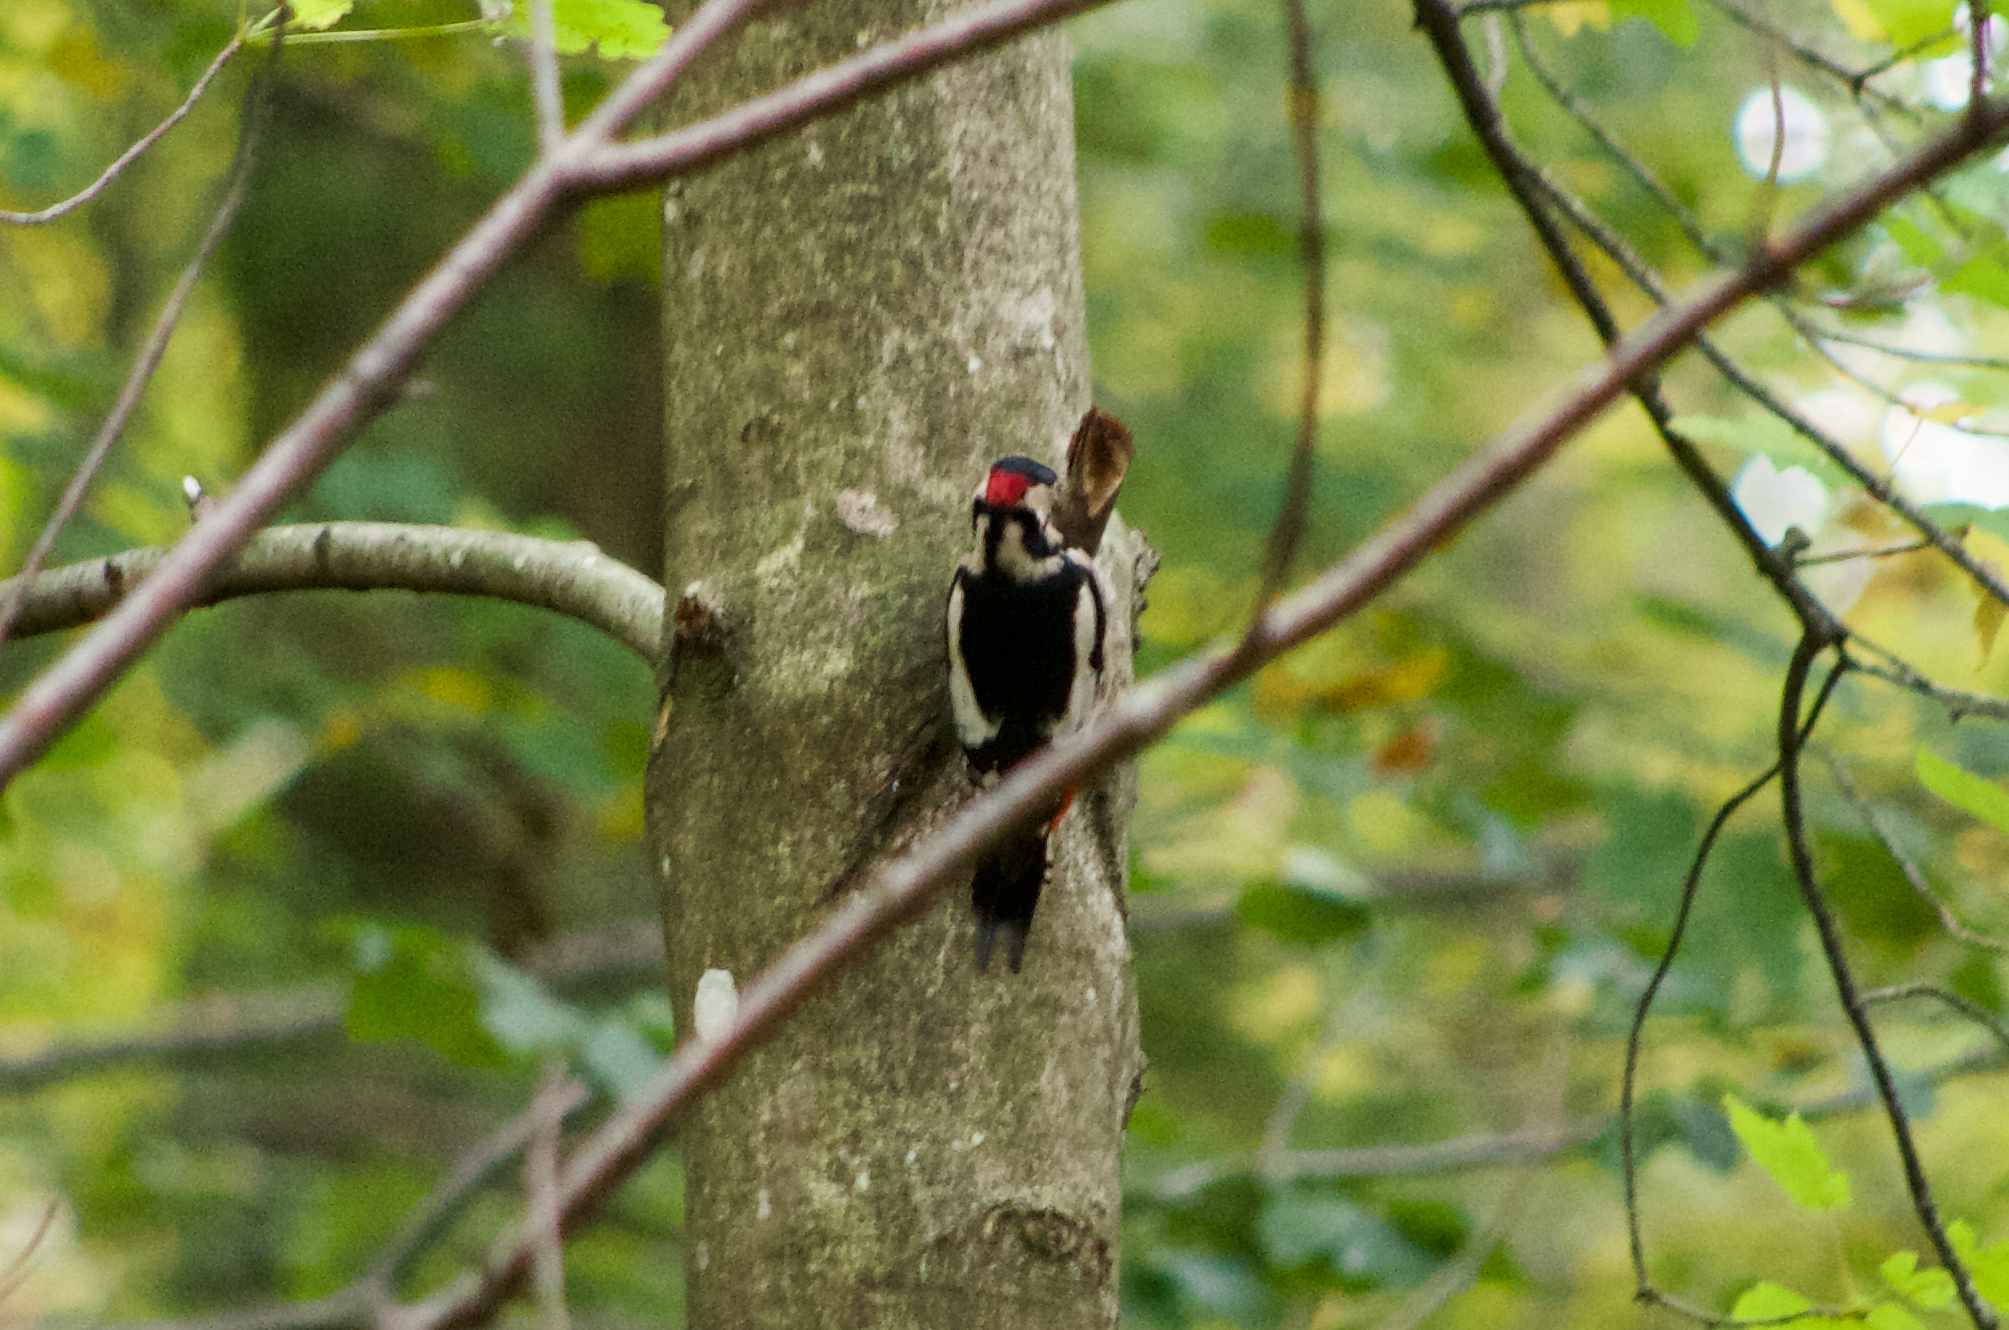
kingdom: Animalia
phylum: Chordata
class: Aves
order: Piciformes
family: Picidae
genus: Dendrocopos
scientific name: Dendrocopos major
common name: Great spotted woodpecker
